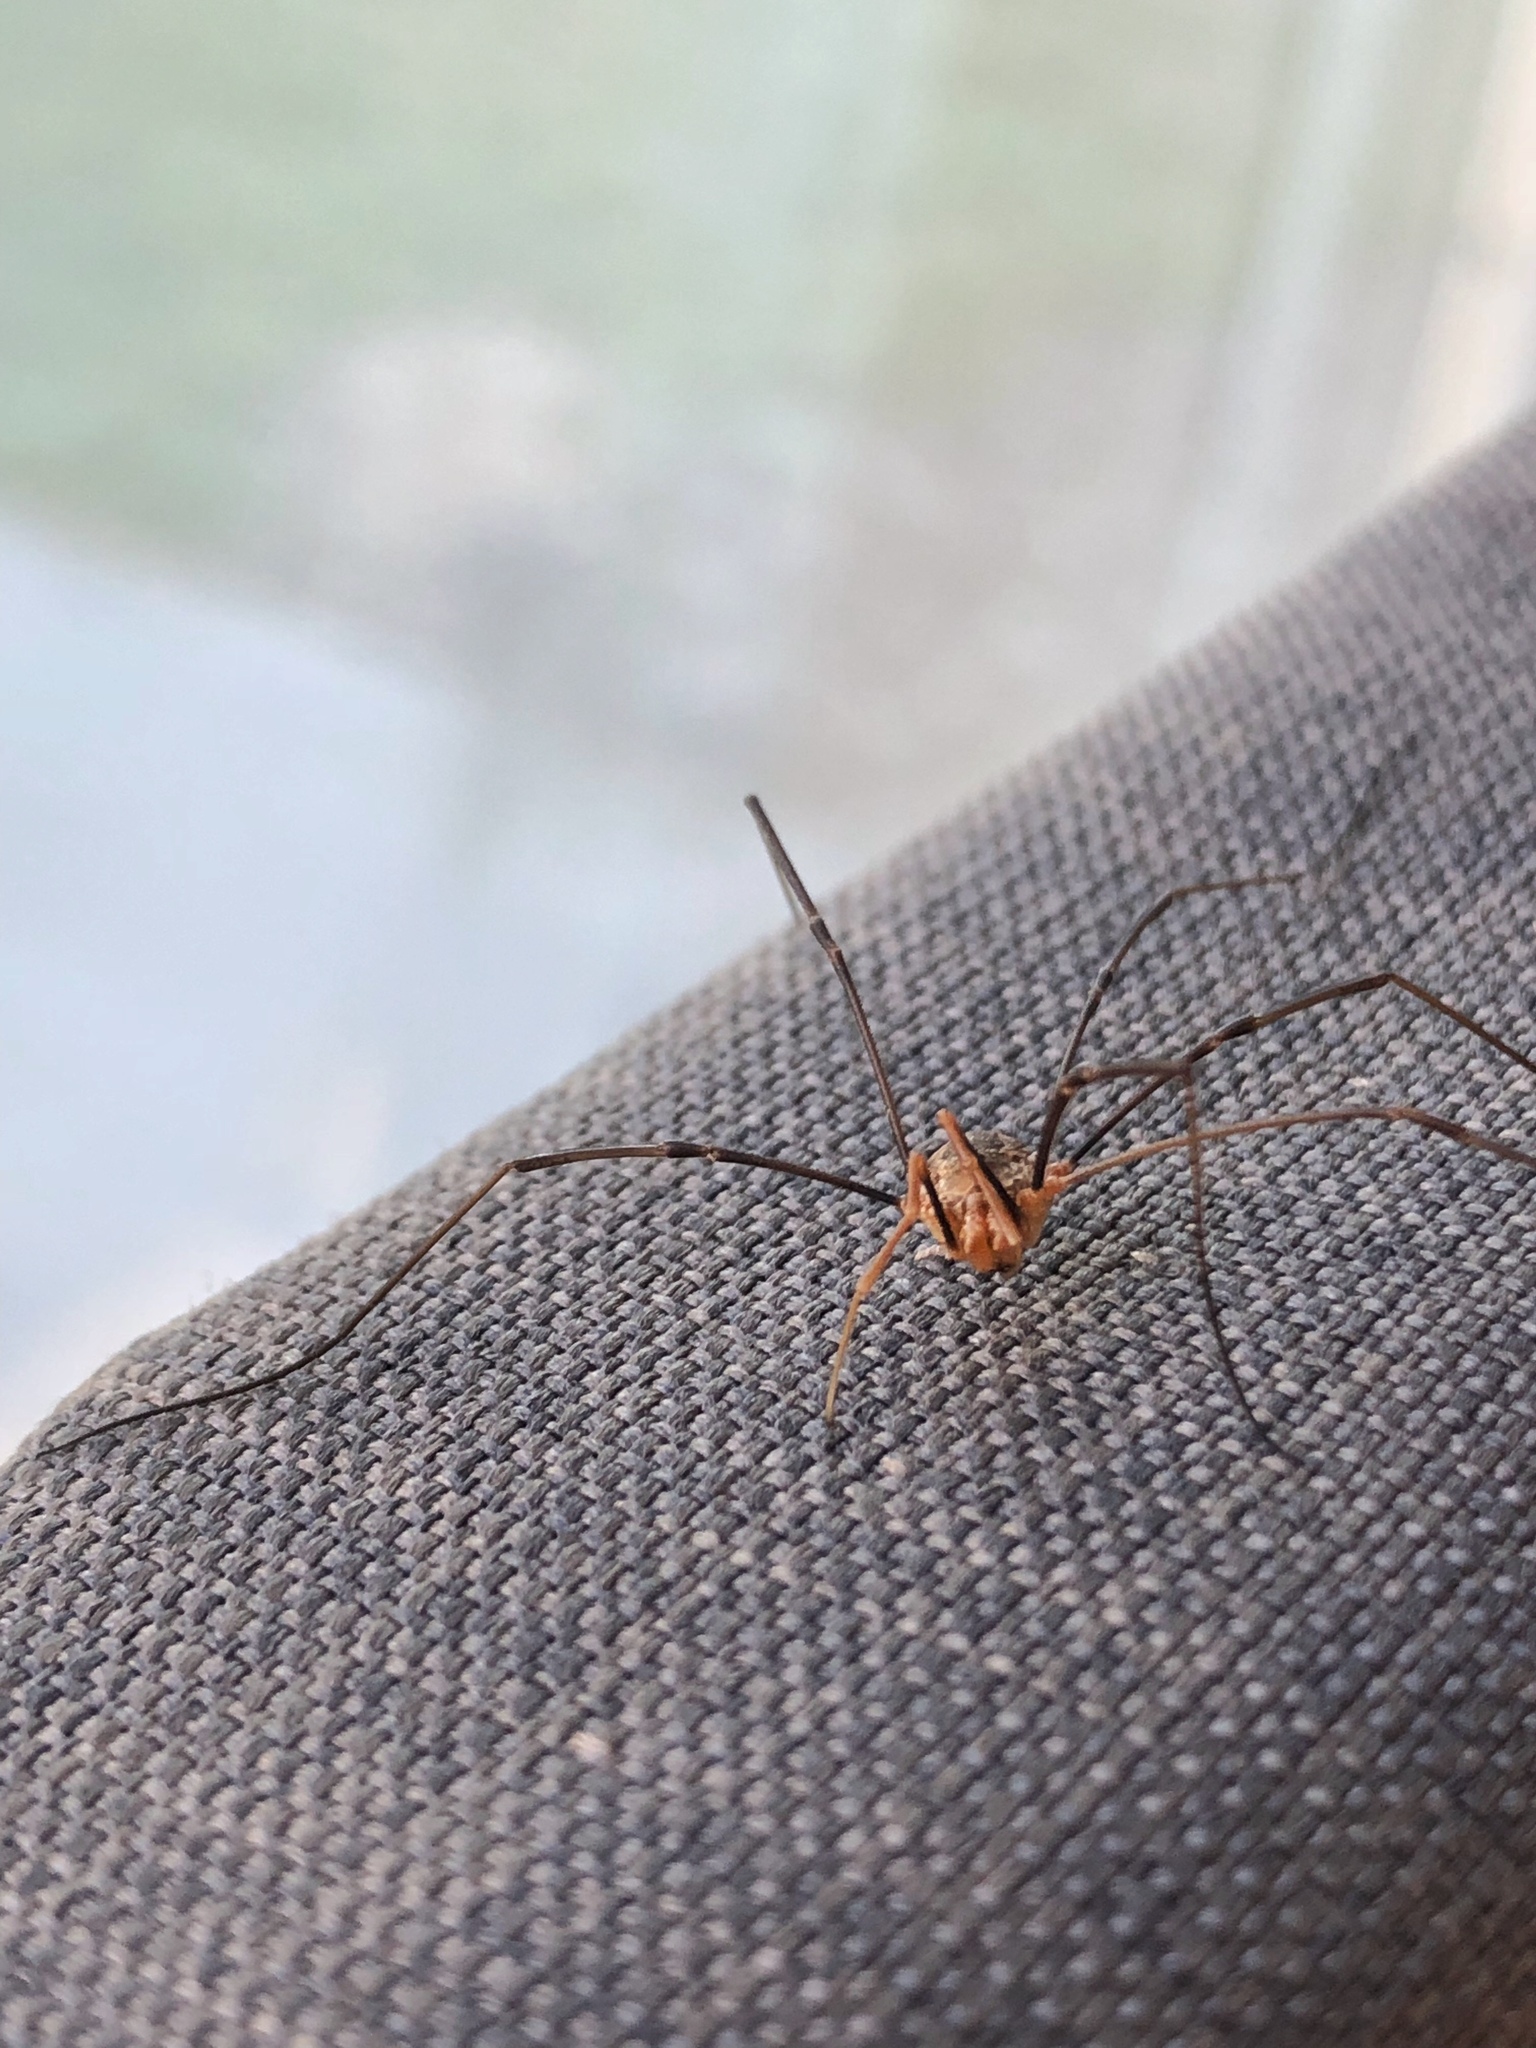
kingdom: Animalia
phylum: Arthropoda
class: Arachnida
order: Opiliones
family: Phalangiidae
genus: Phalangium
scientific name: Phalangium opilio
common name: Daddy longleg
